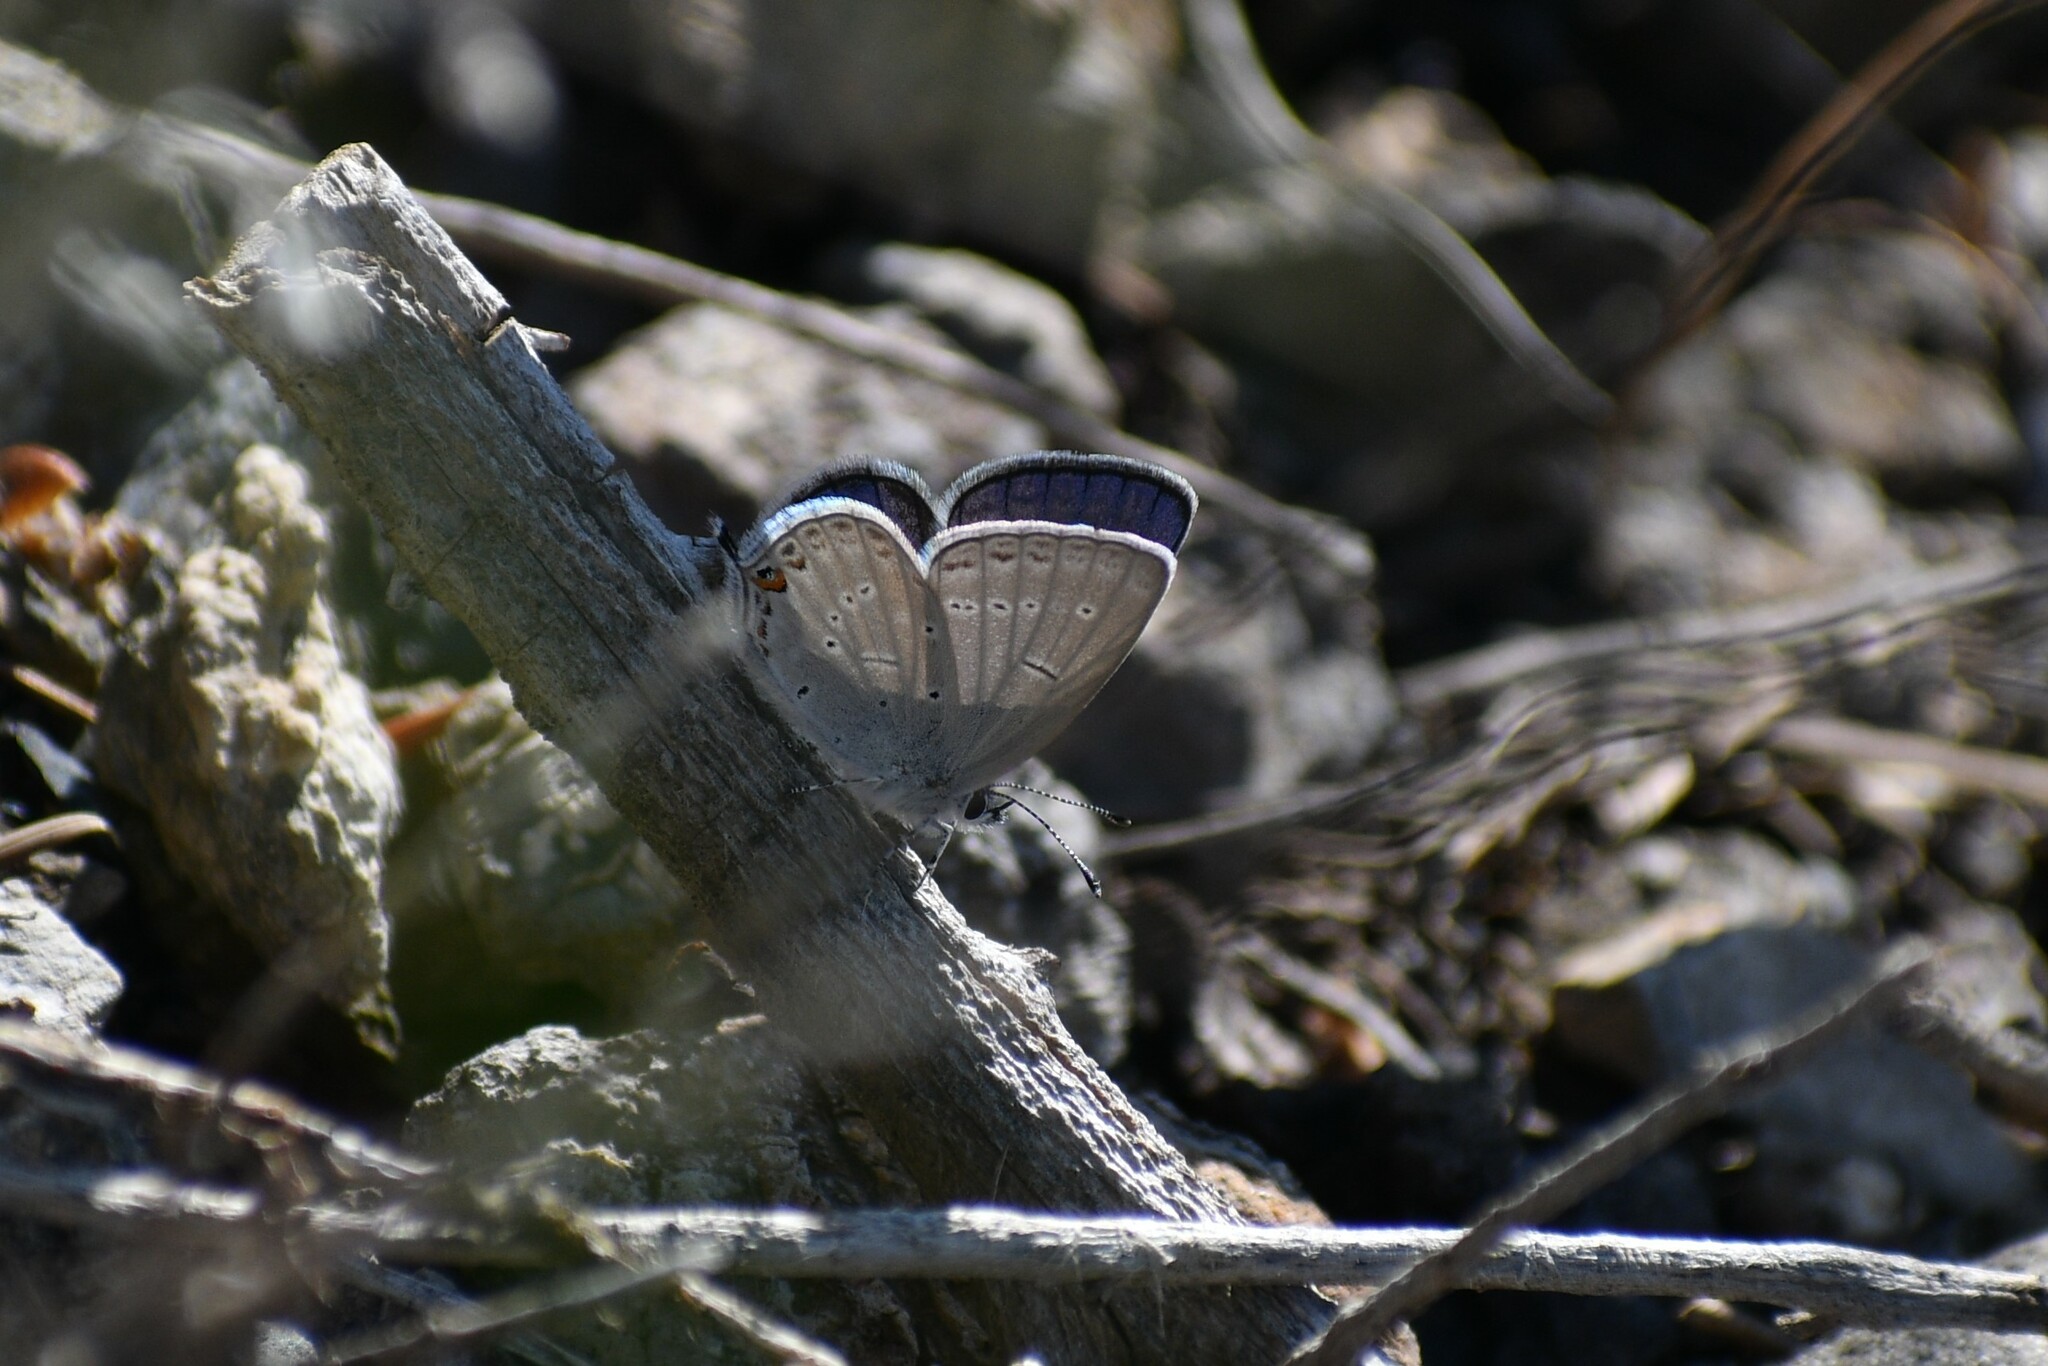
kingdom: Animalia
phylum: Arthropoda
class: Insecta
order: Lepidoptera
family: Lycaenidae
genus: Elkalyce
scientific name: Elkalyce amyntula
